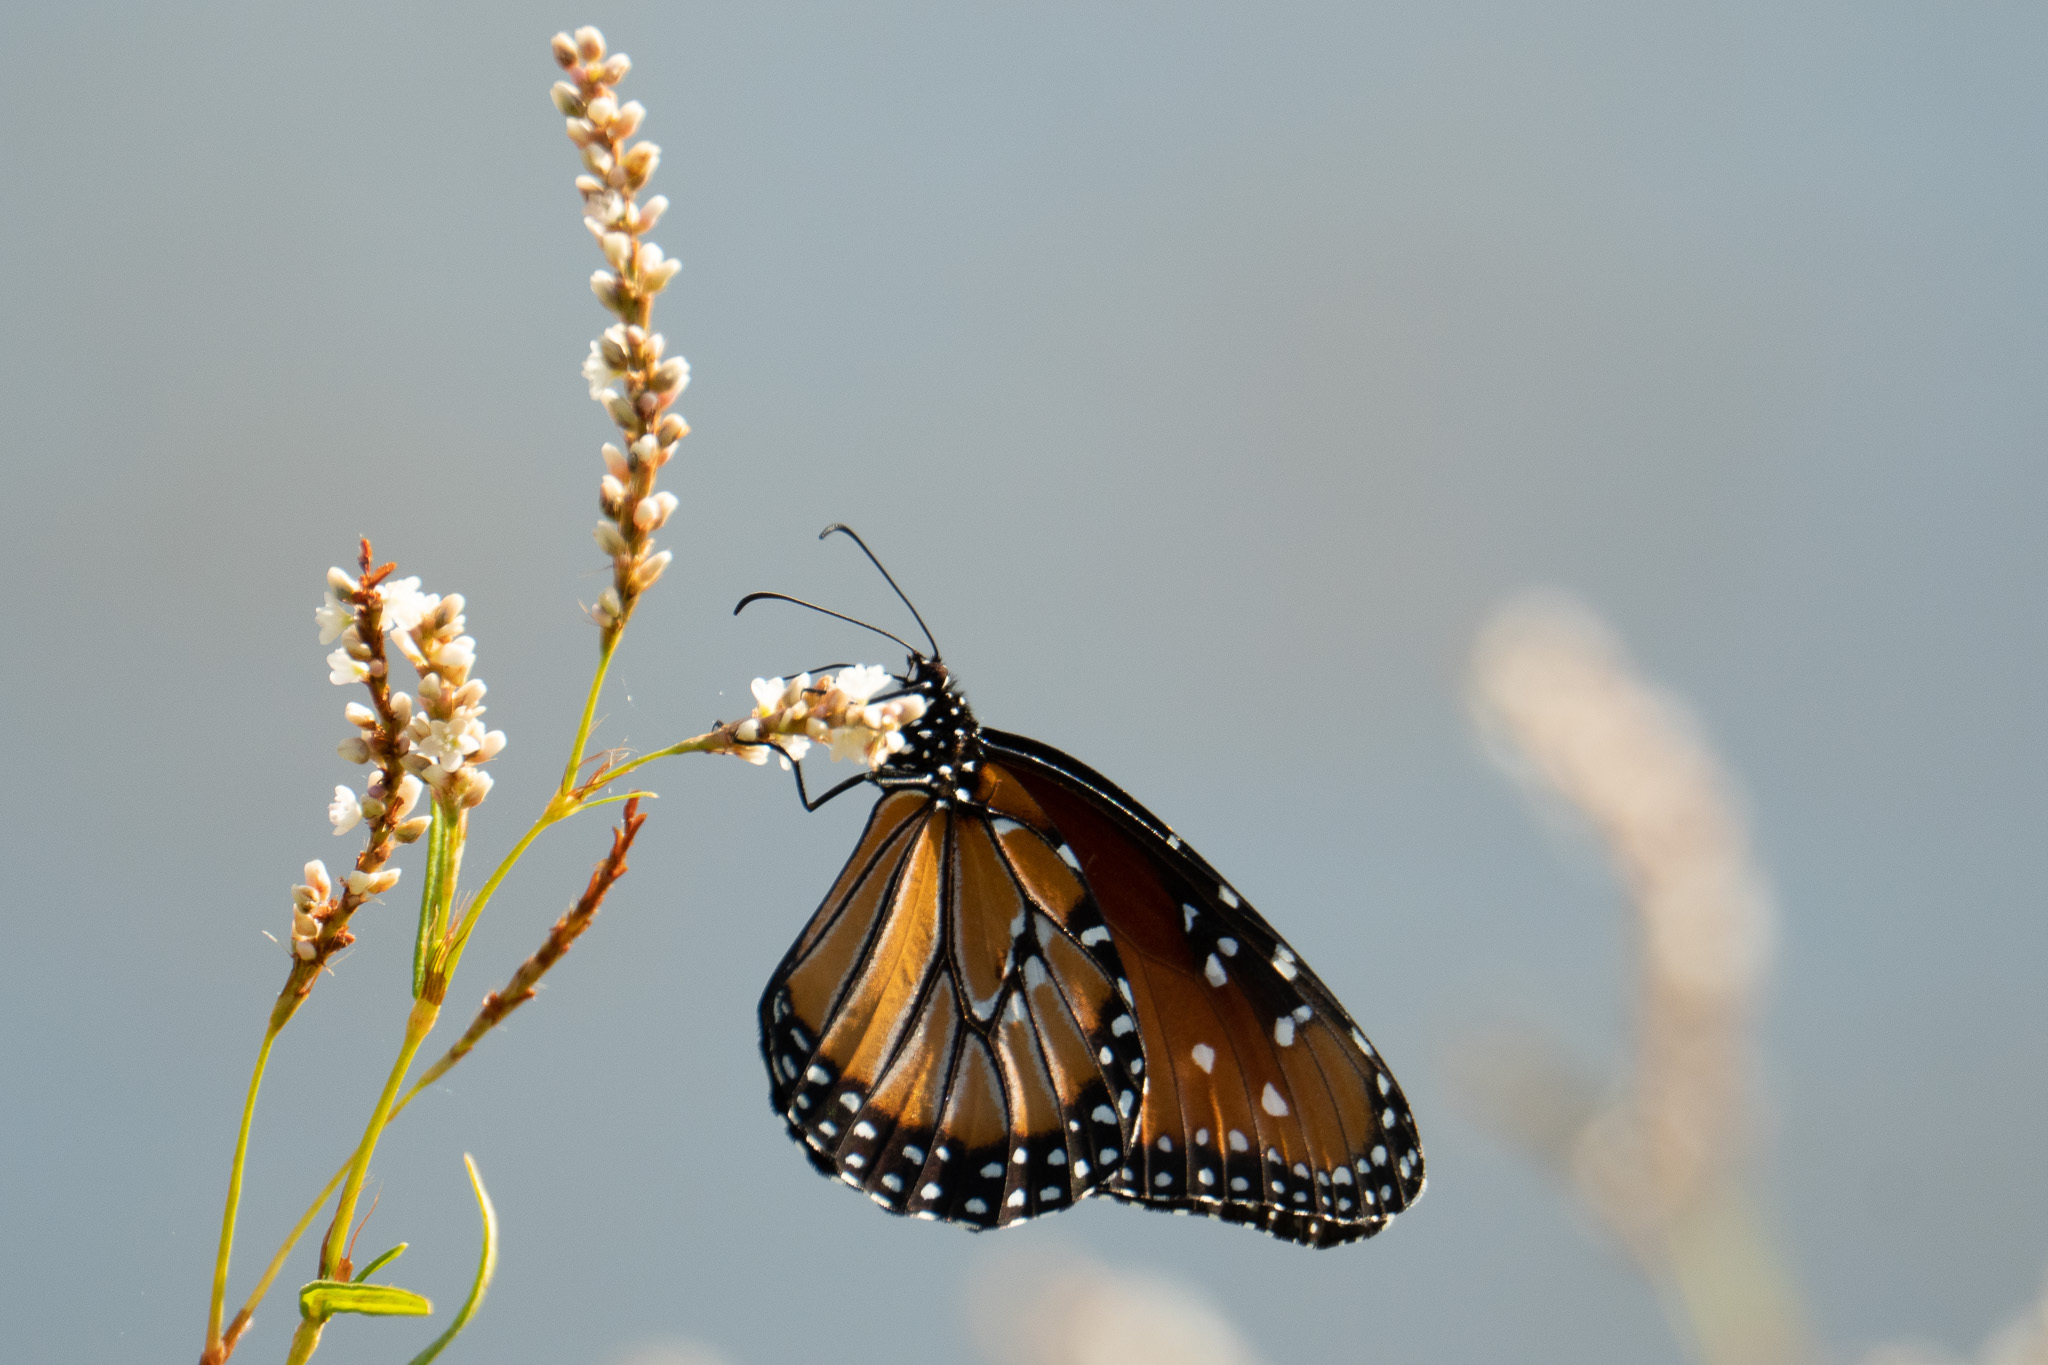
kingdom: Animalia
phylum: Arthropoda
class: Insecta
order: Lepidoptera
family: Nymphalidae
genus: Danaus
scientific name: Danaus gilippus
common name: Queen
